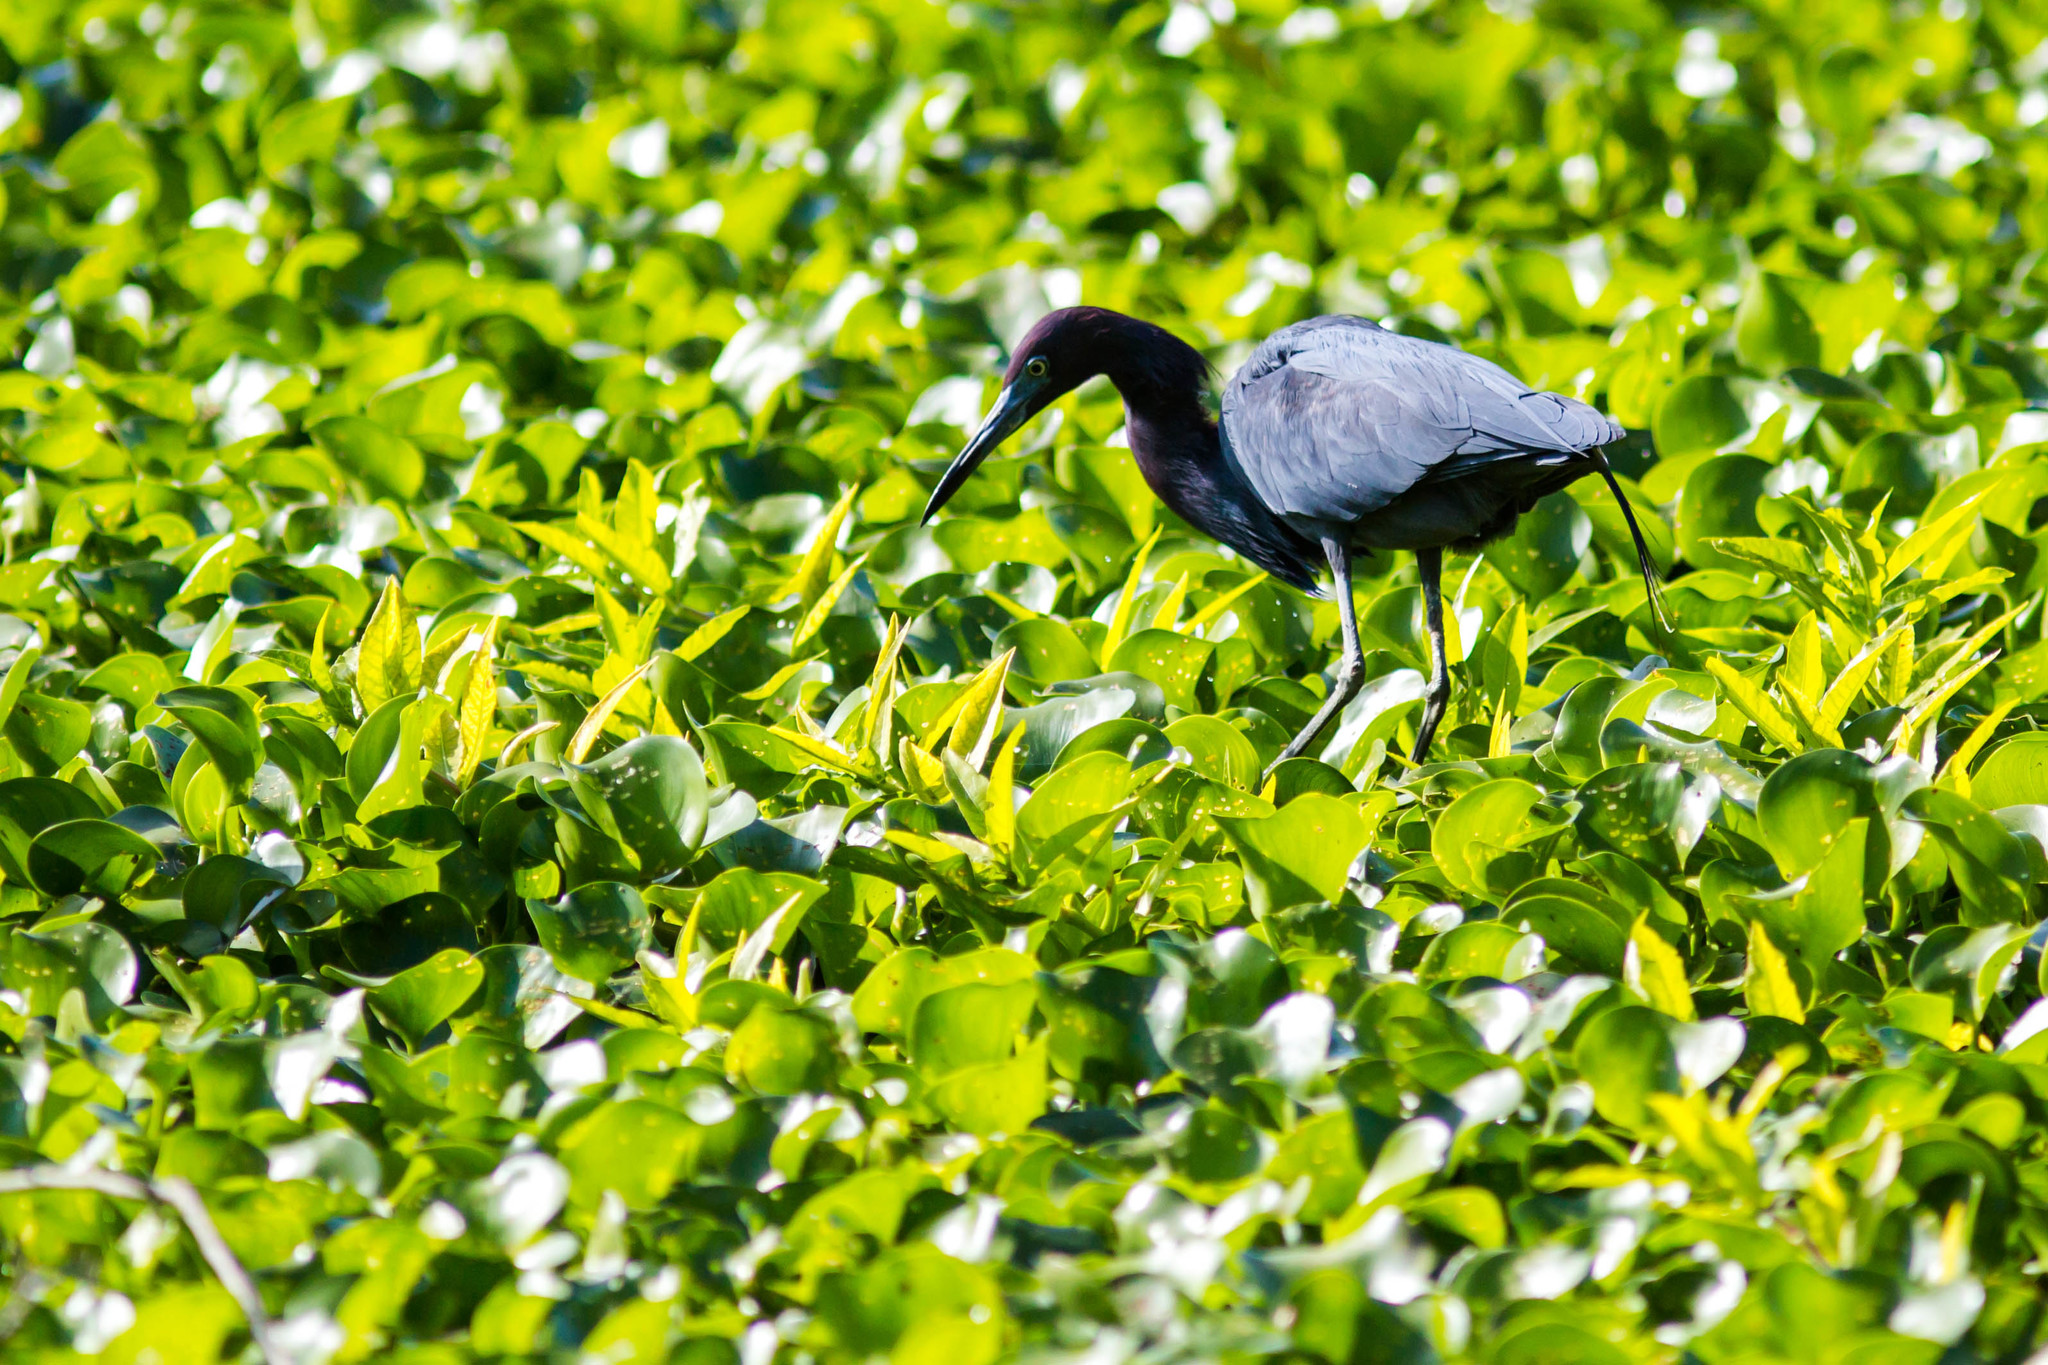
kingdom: Animalia
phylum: Chordata
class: Aves
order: Pelecaniformes
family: Ardeidae
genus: Egretta
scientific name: Egretta caerulea
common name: Little blue heron
